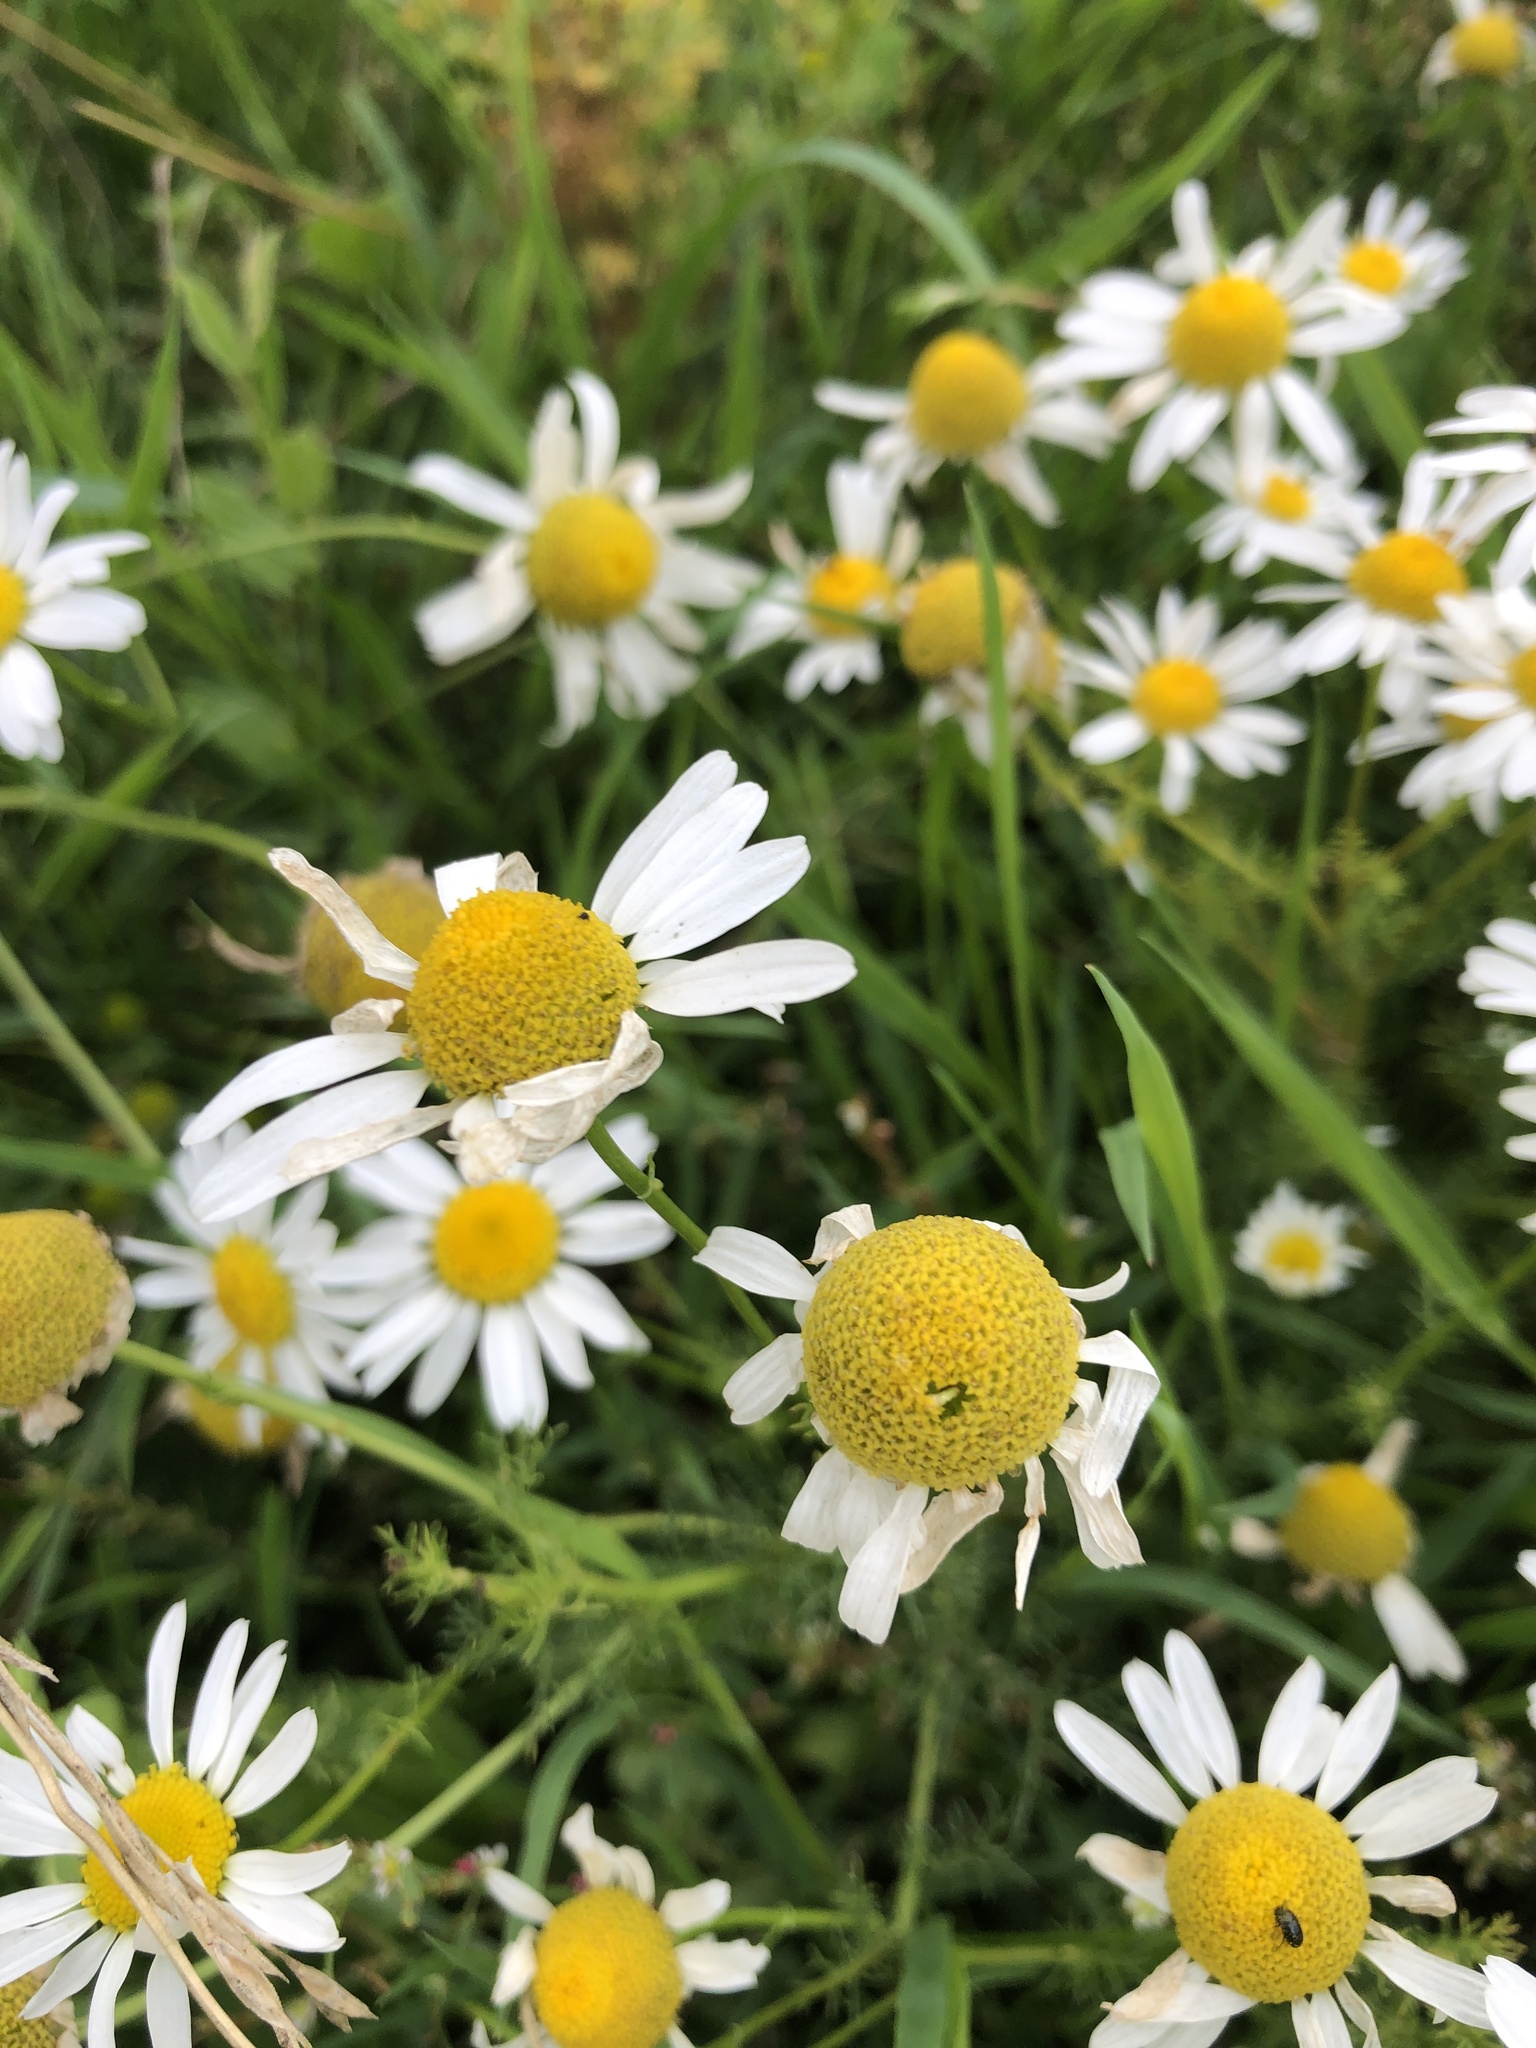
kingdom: Plantae
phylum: Tracheophyta
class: Magnoliopsida
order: Asterales
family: Asteraceae
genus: Tripleurospermum
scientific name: Tripleurospermum inodorum
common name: Scentless mayweed
